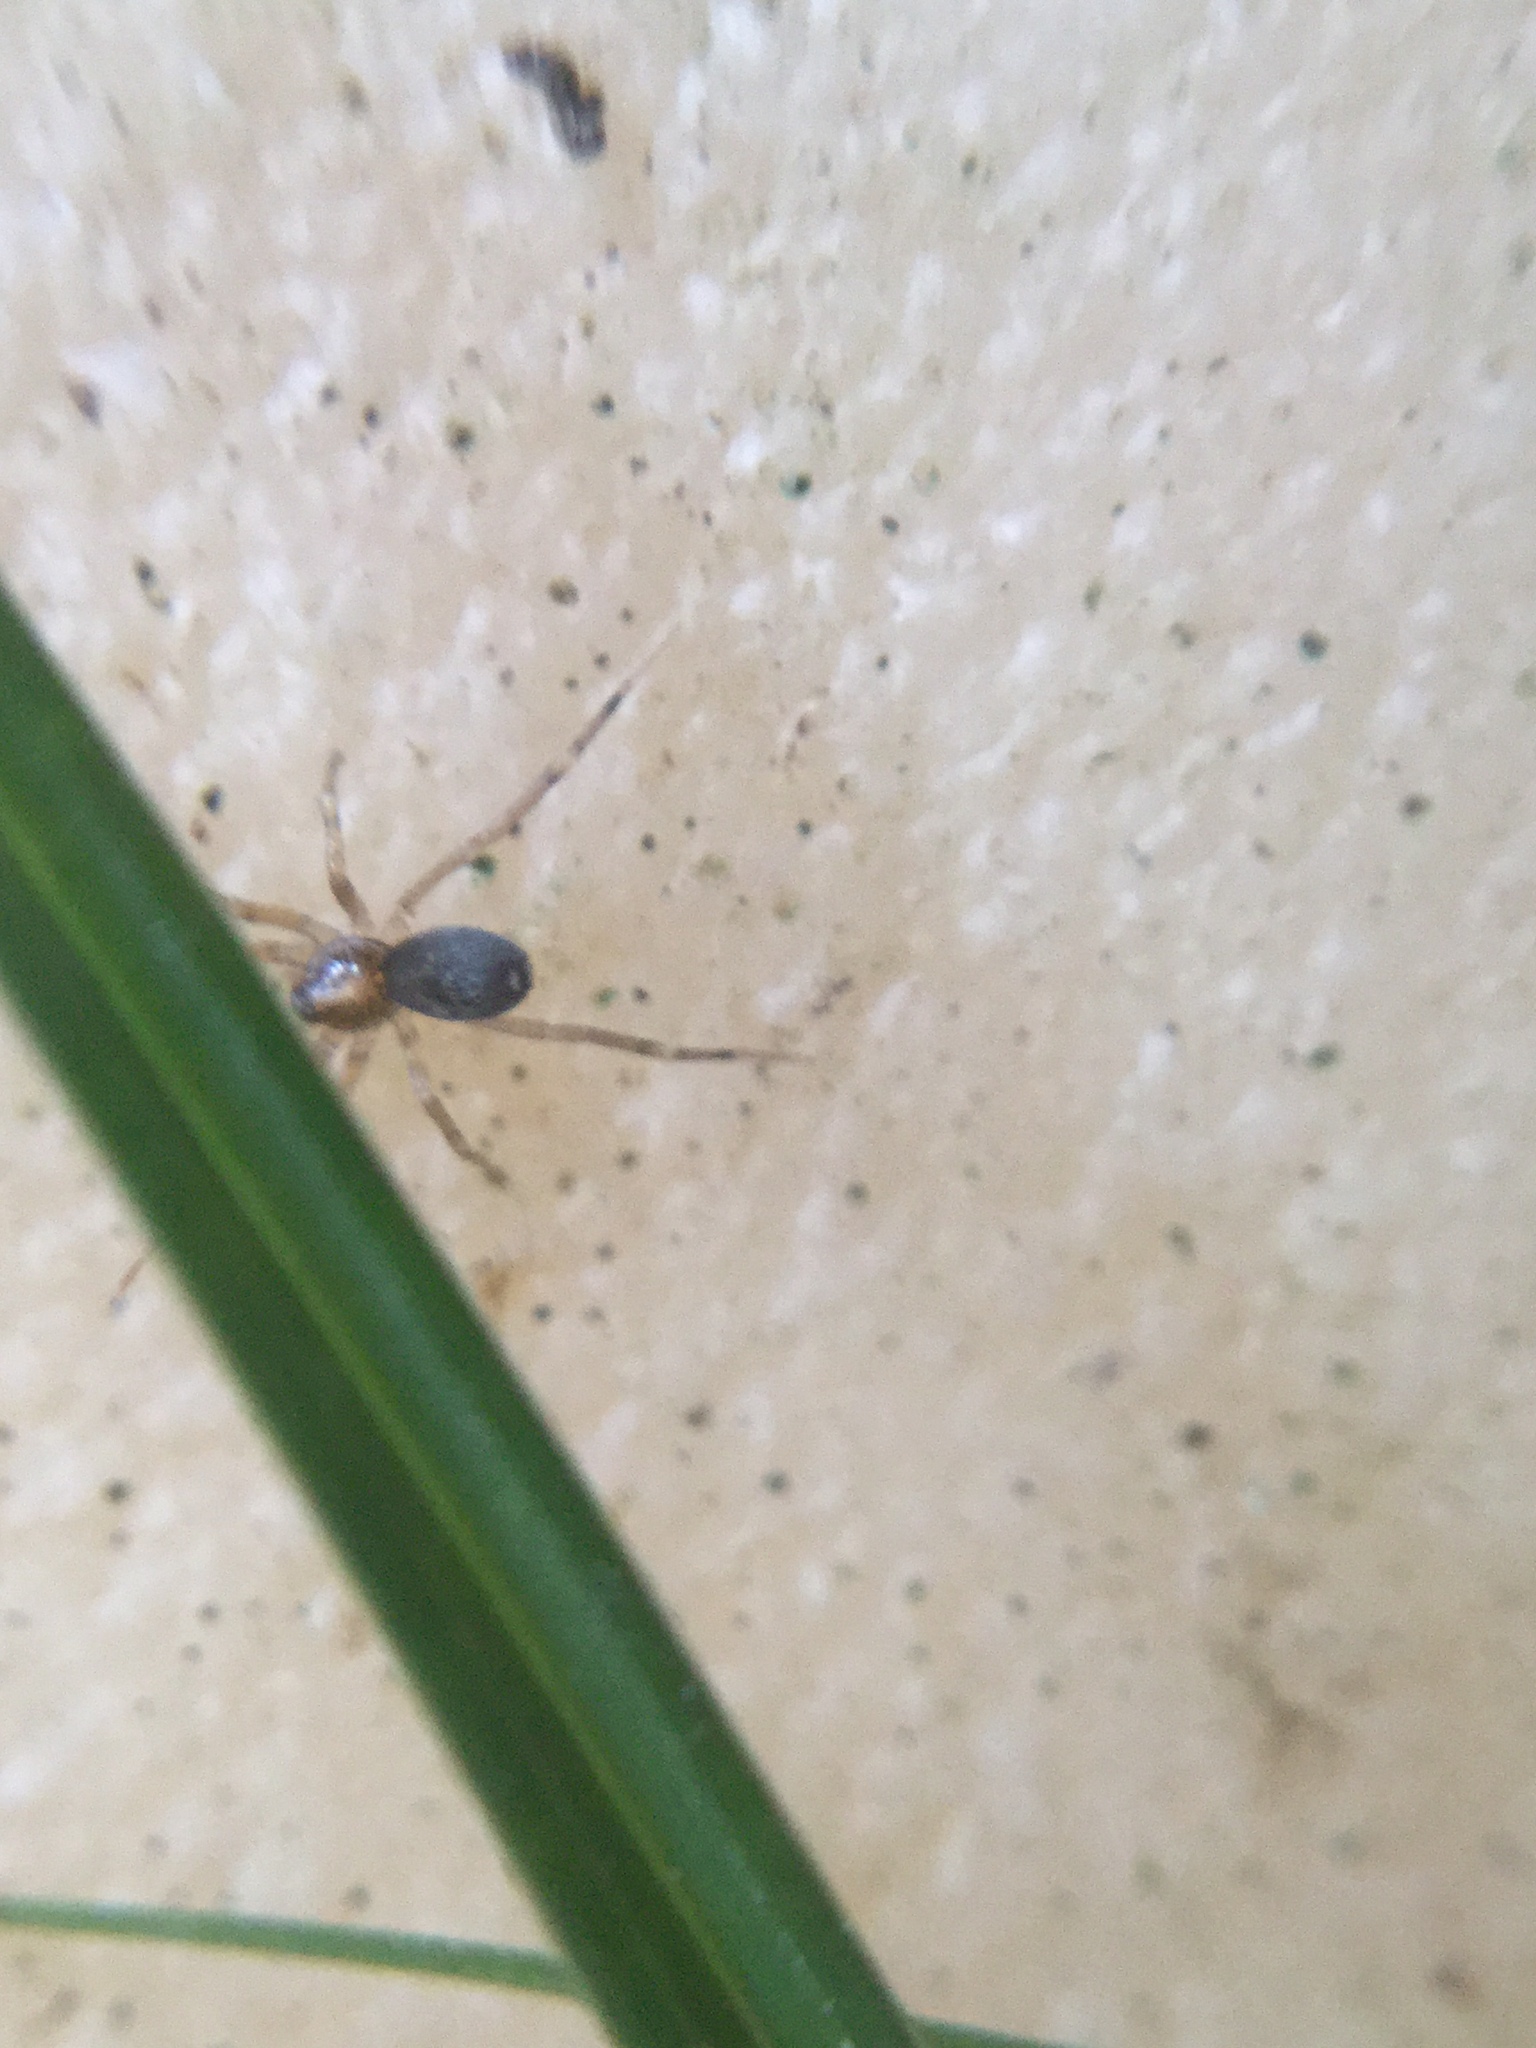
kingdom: Animalia
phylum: Arthropoda
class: Arachnida
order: Araneae
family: Phrurolithidae
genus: Phrurotimpus
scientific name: Phrurotimpus borealis
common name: Greater ant-mimic corinne spider
